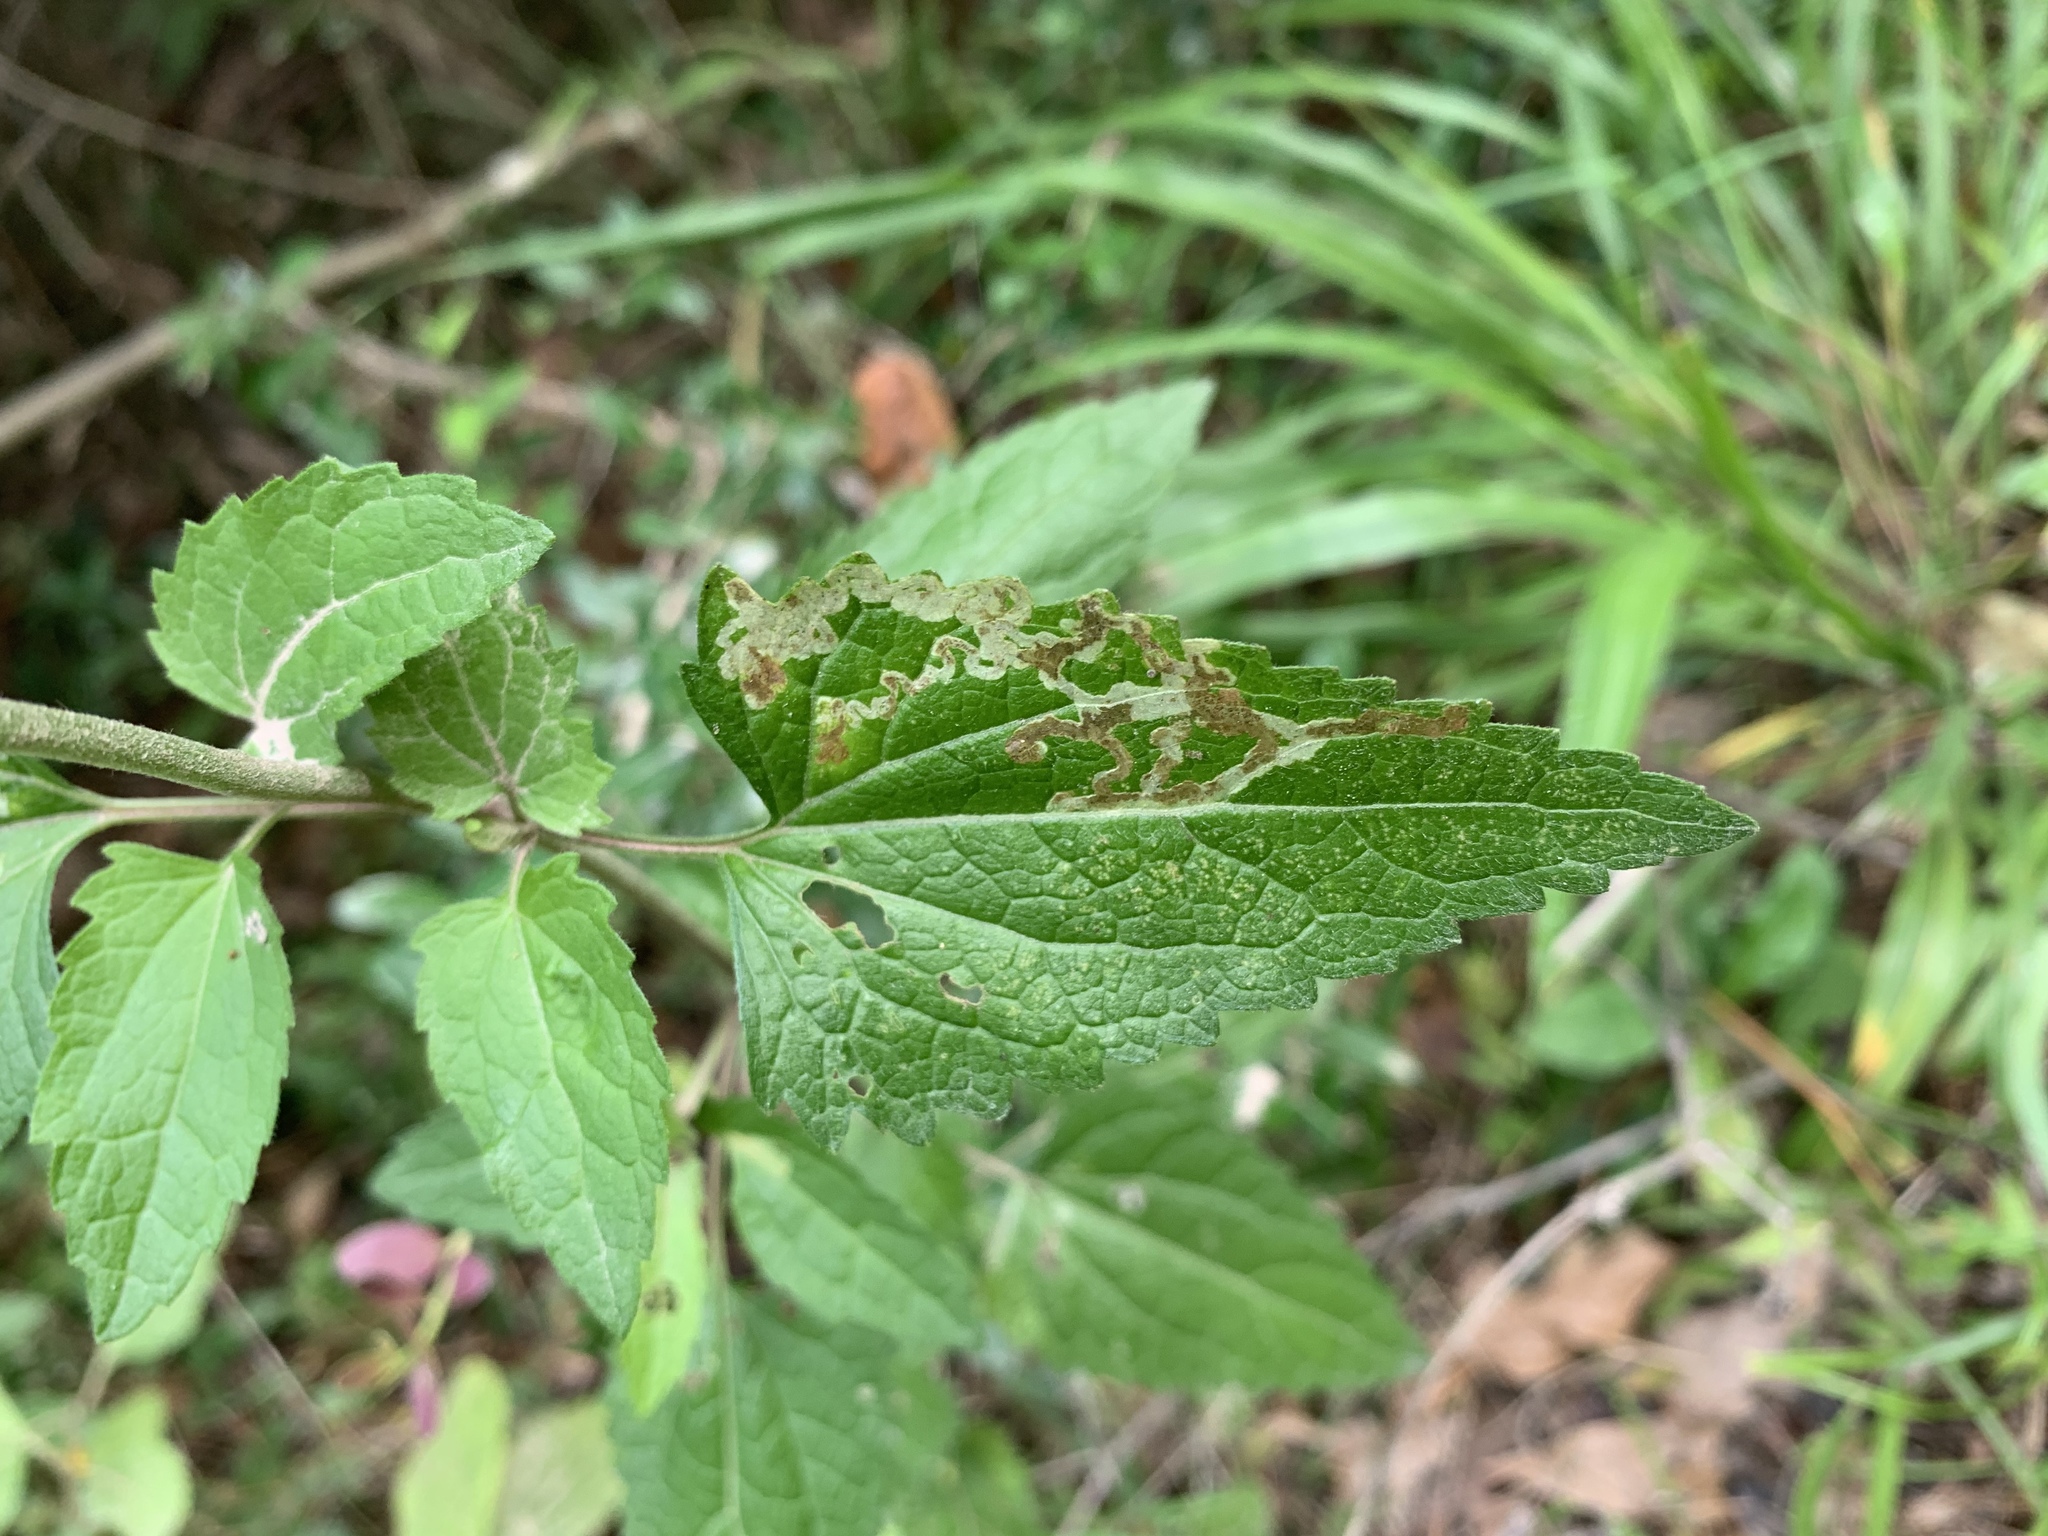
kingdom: Plantae
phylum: Tracheophyta
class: Magnoliopsida
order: Asterales
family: Asteraceae
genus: Conoclinium
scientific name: Conoclinium coelestinum
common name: Blue mistflower
